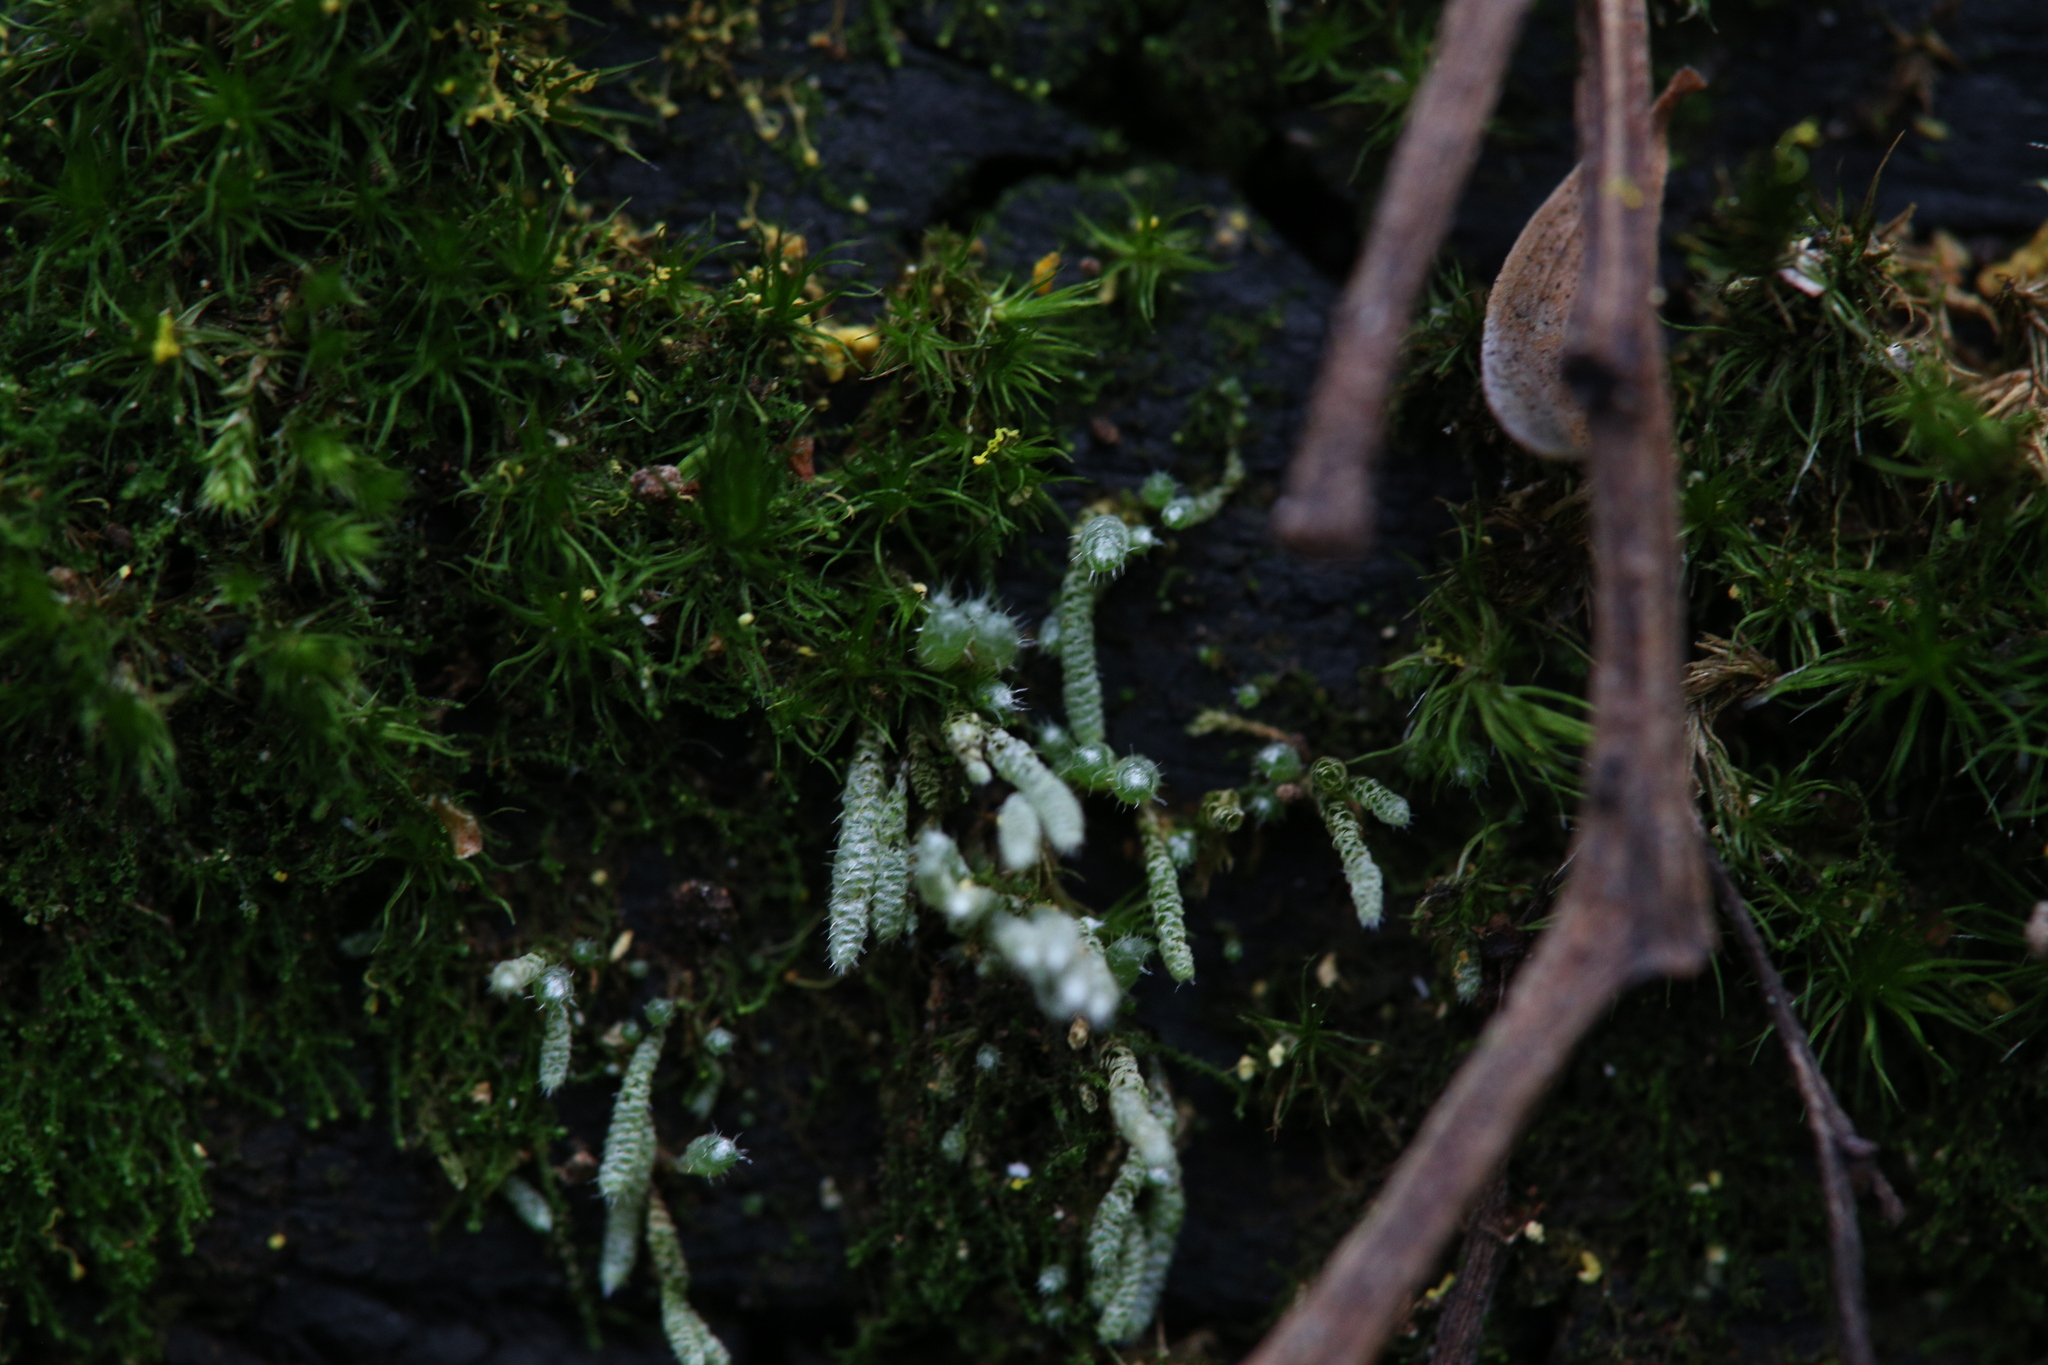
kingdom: Plantae
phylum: Bryophyta
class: Bryopsida
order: Bryales
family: Bryaceae
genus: Bryum
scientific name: Bryum argenteum
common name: Silver-moss
